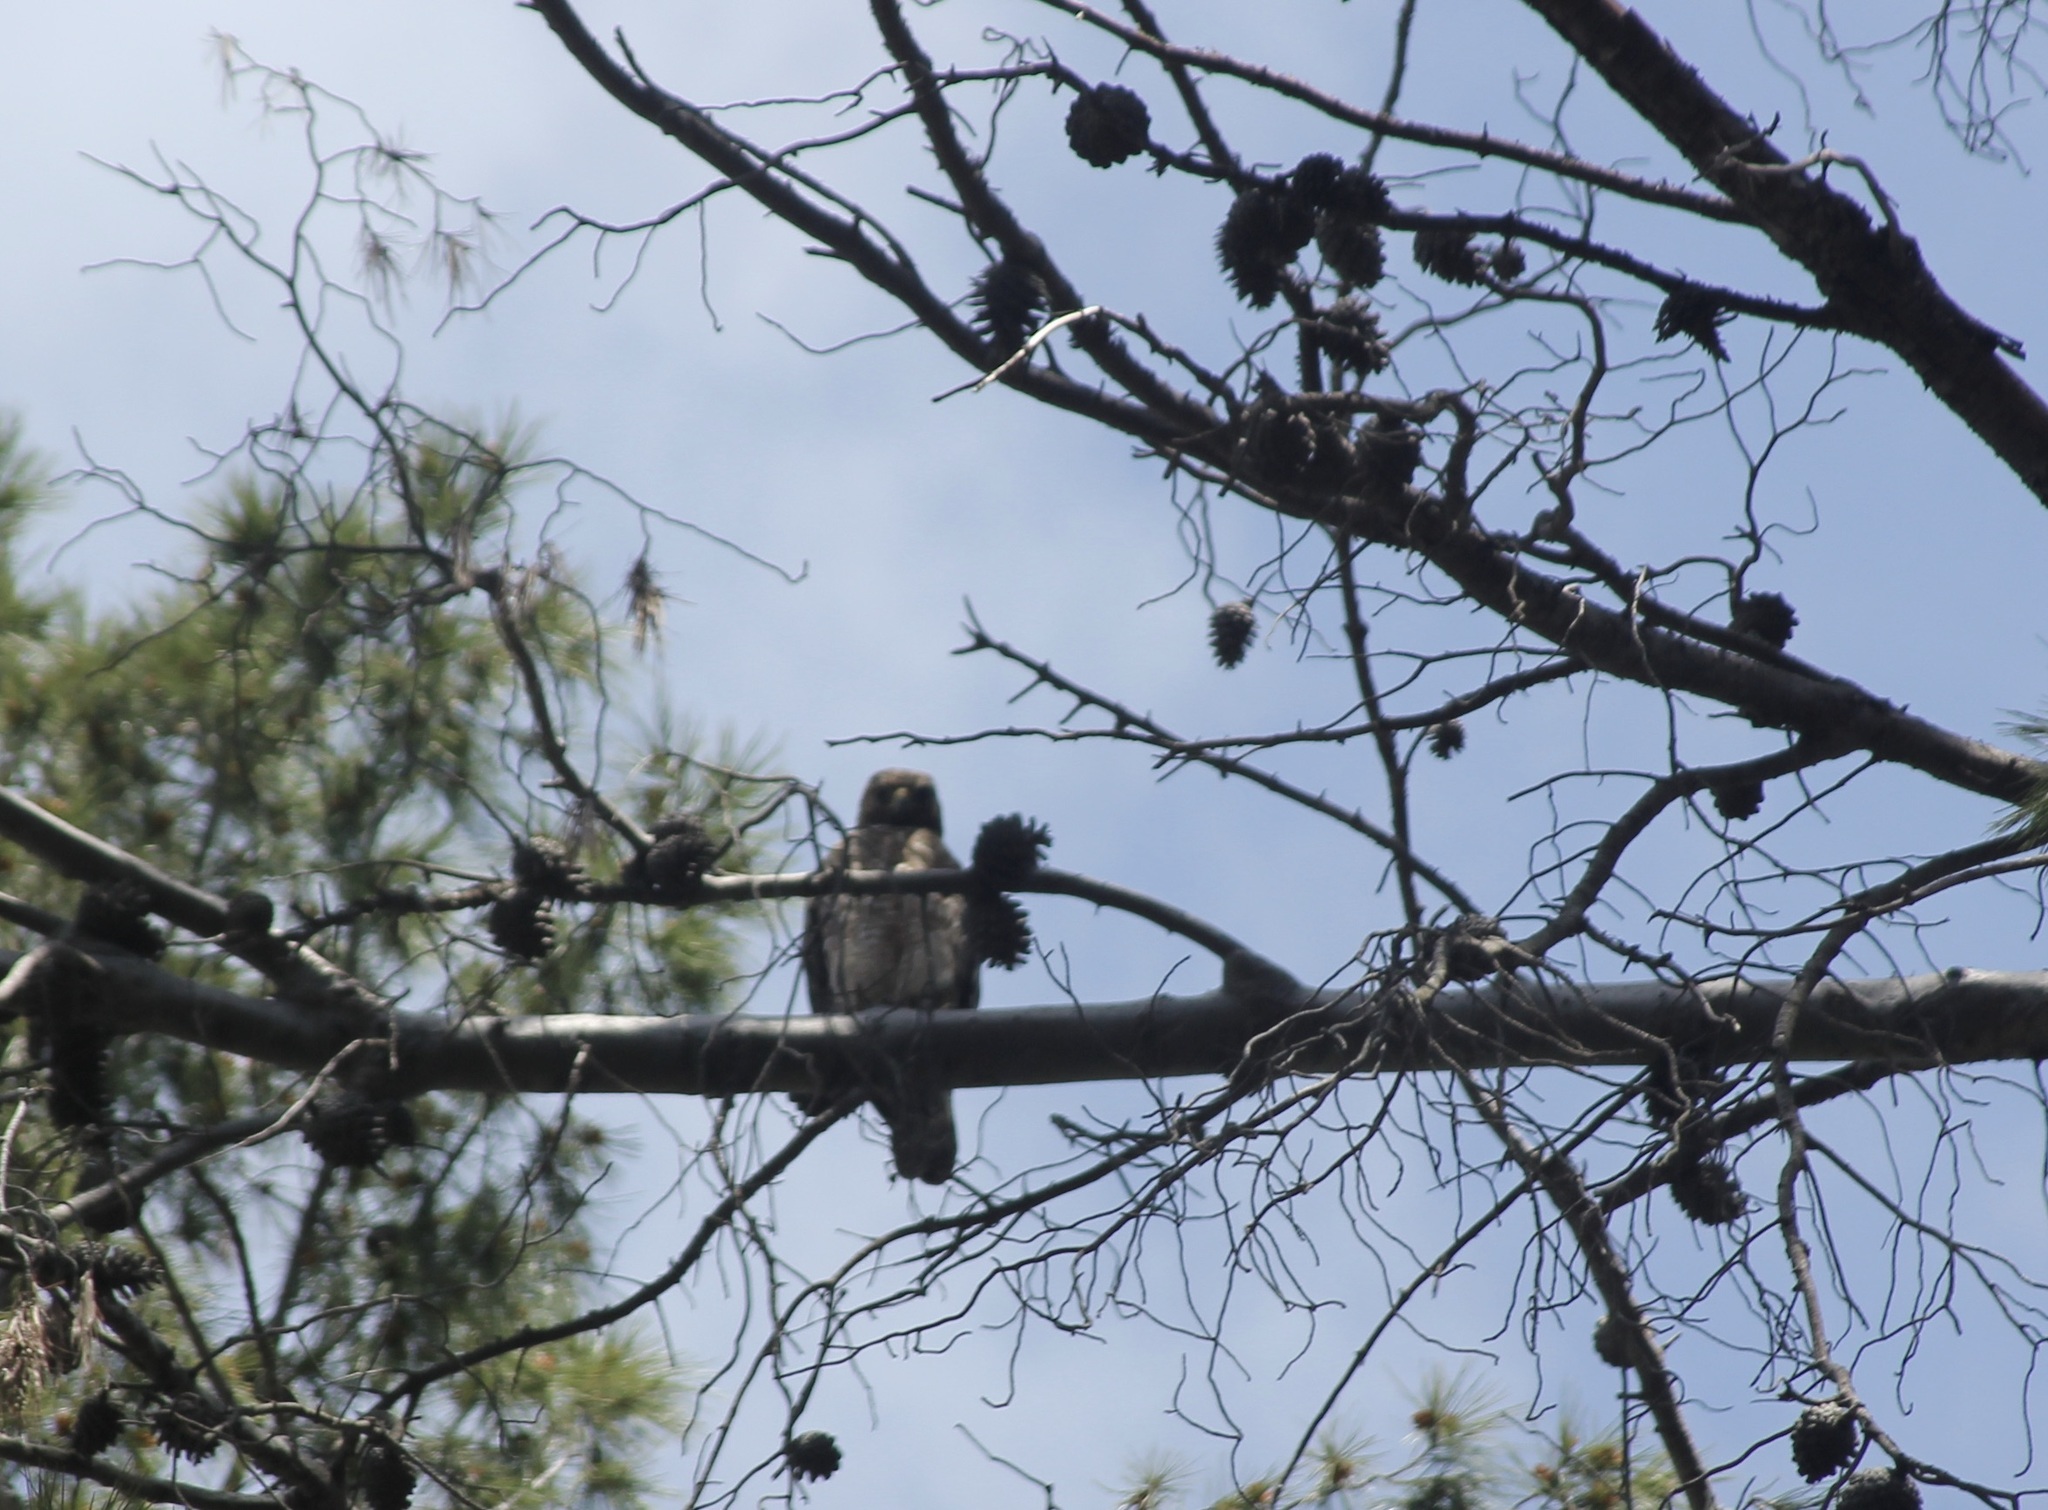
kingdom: Animalia
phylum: Chordata
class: Aves
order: Accipitriformes
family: Accipitridae
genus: Buteo
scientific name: Buteo lineatus
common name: Red-shouldered hawk
